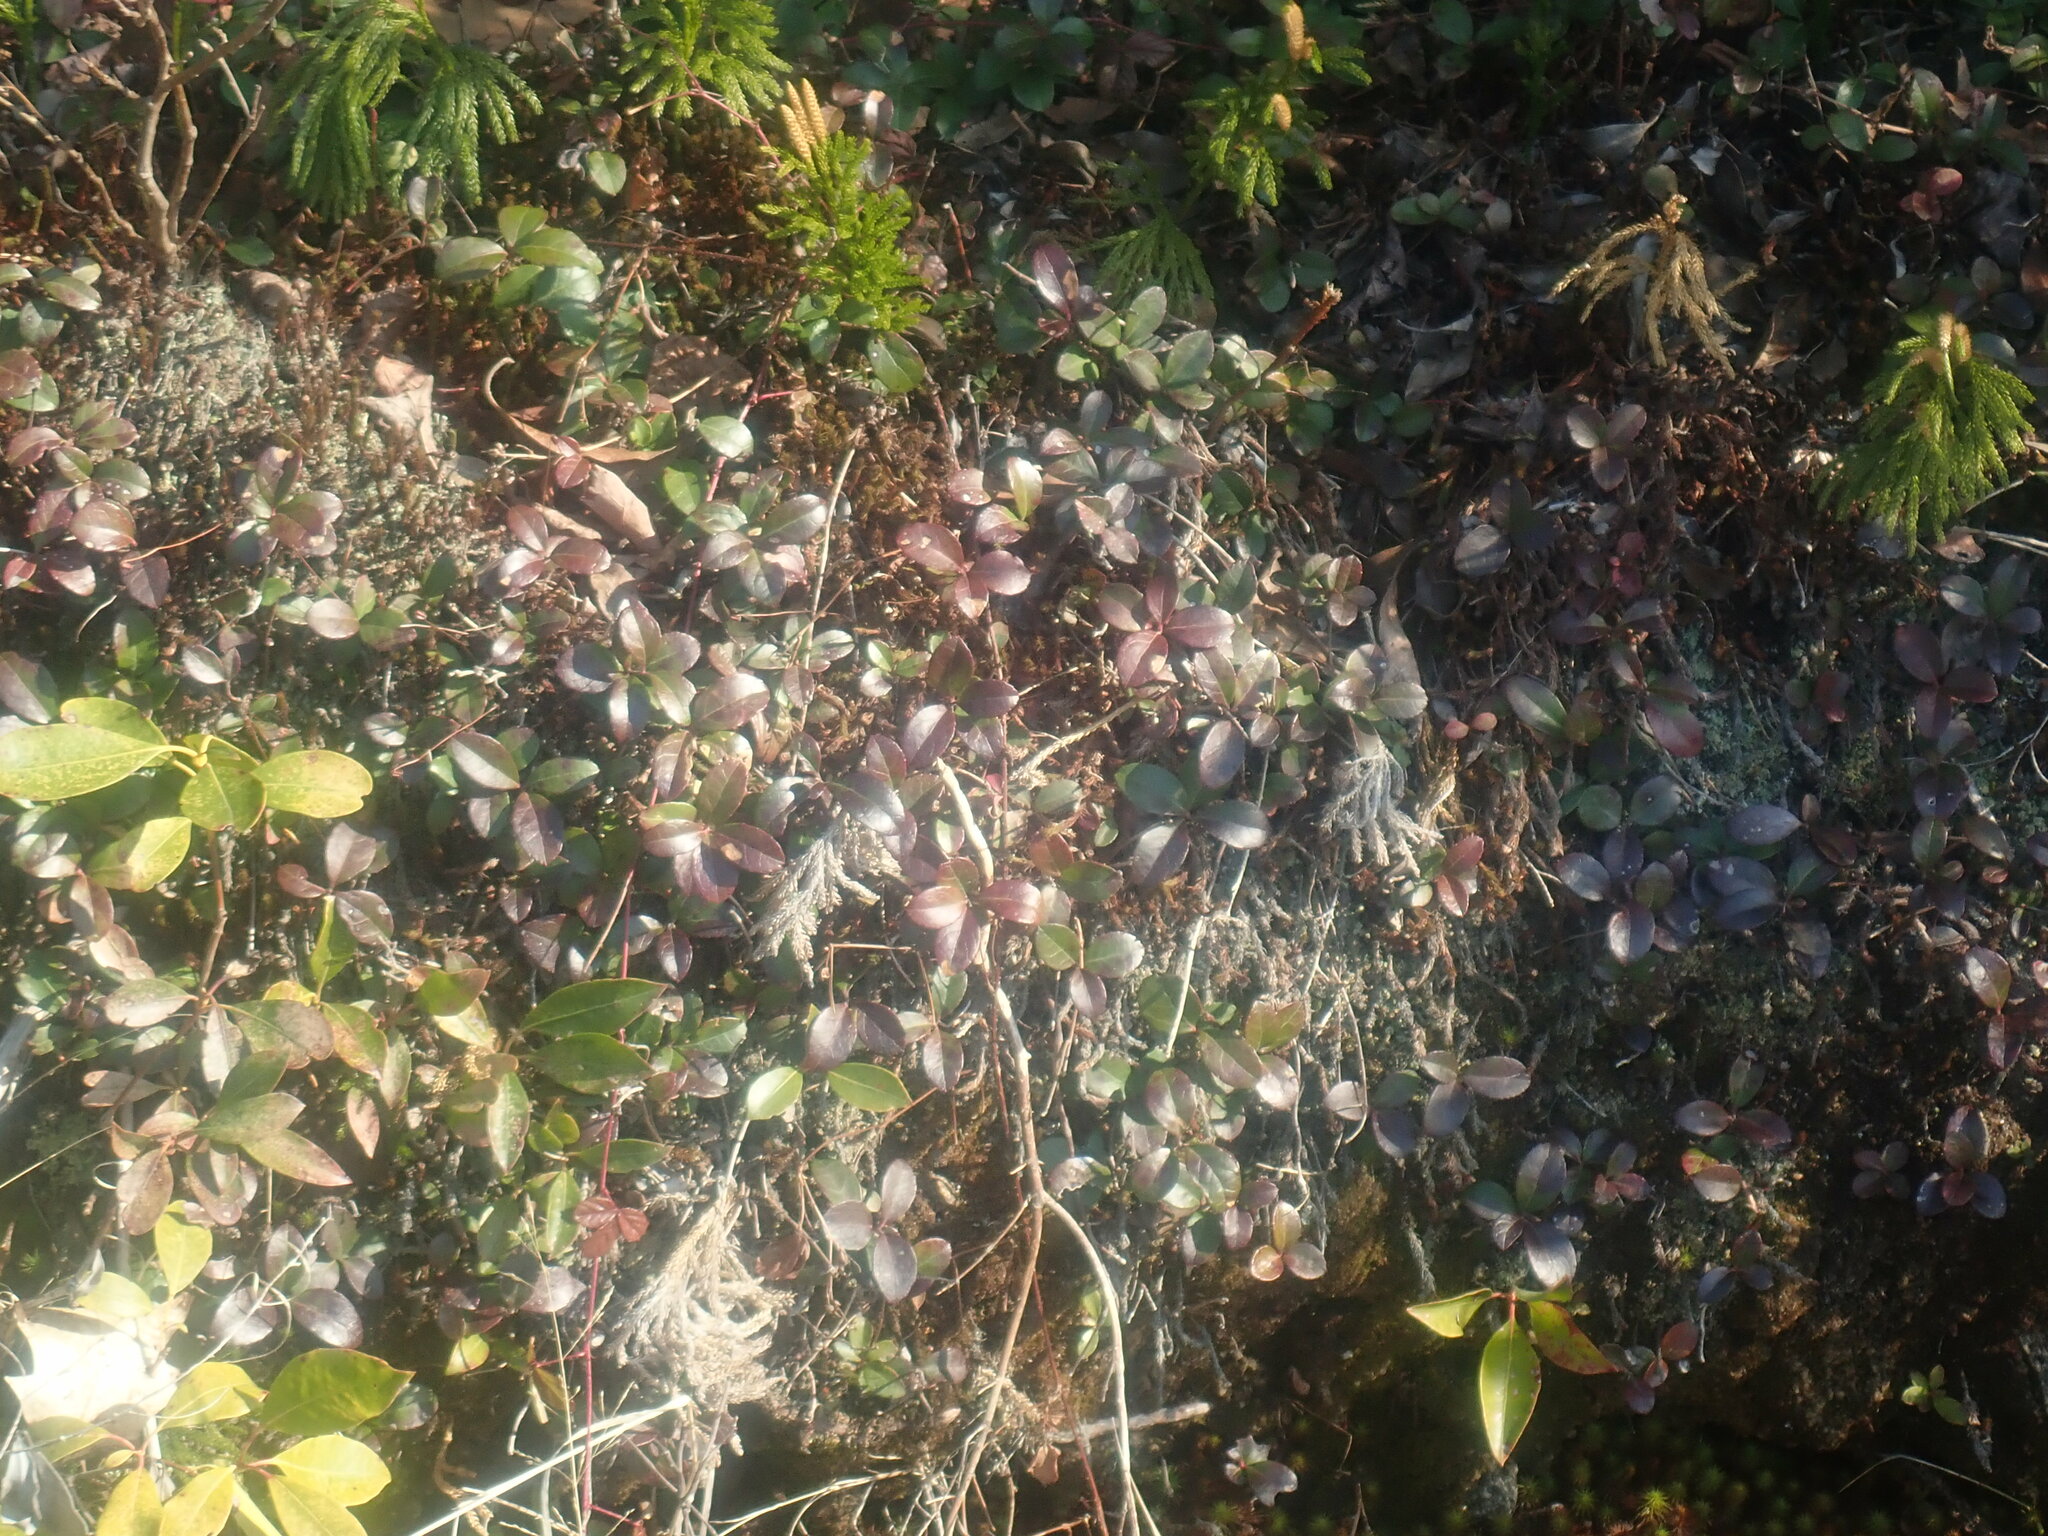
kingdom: Plantae
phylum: Tracheophyta
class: Magnoliopsida
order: Ericales
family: Ericaceae
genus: Gaultheria
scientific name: Gaultheria procumbens
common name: Checkerberry
